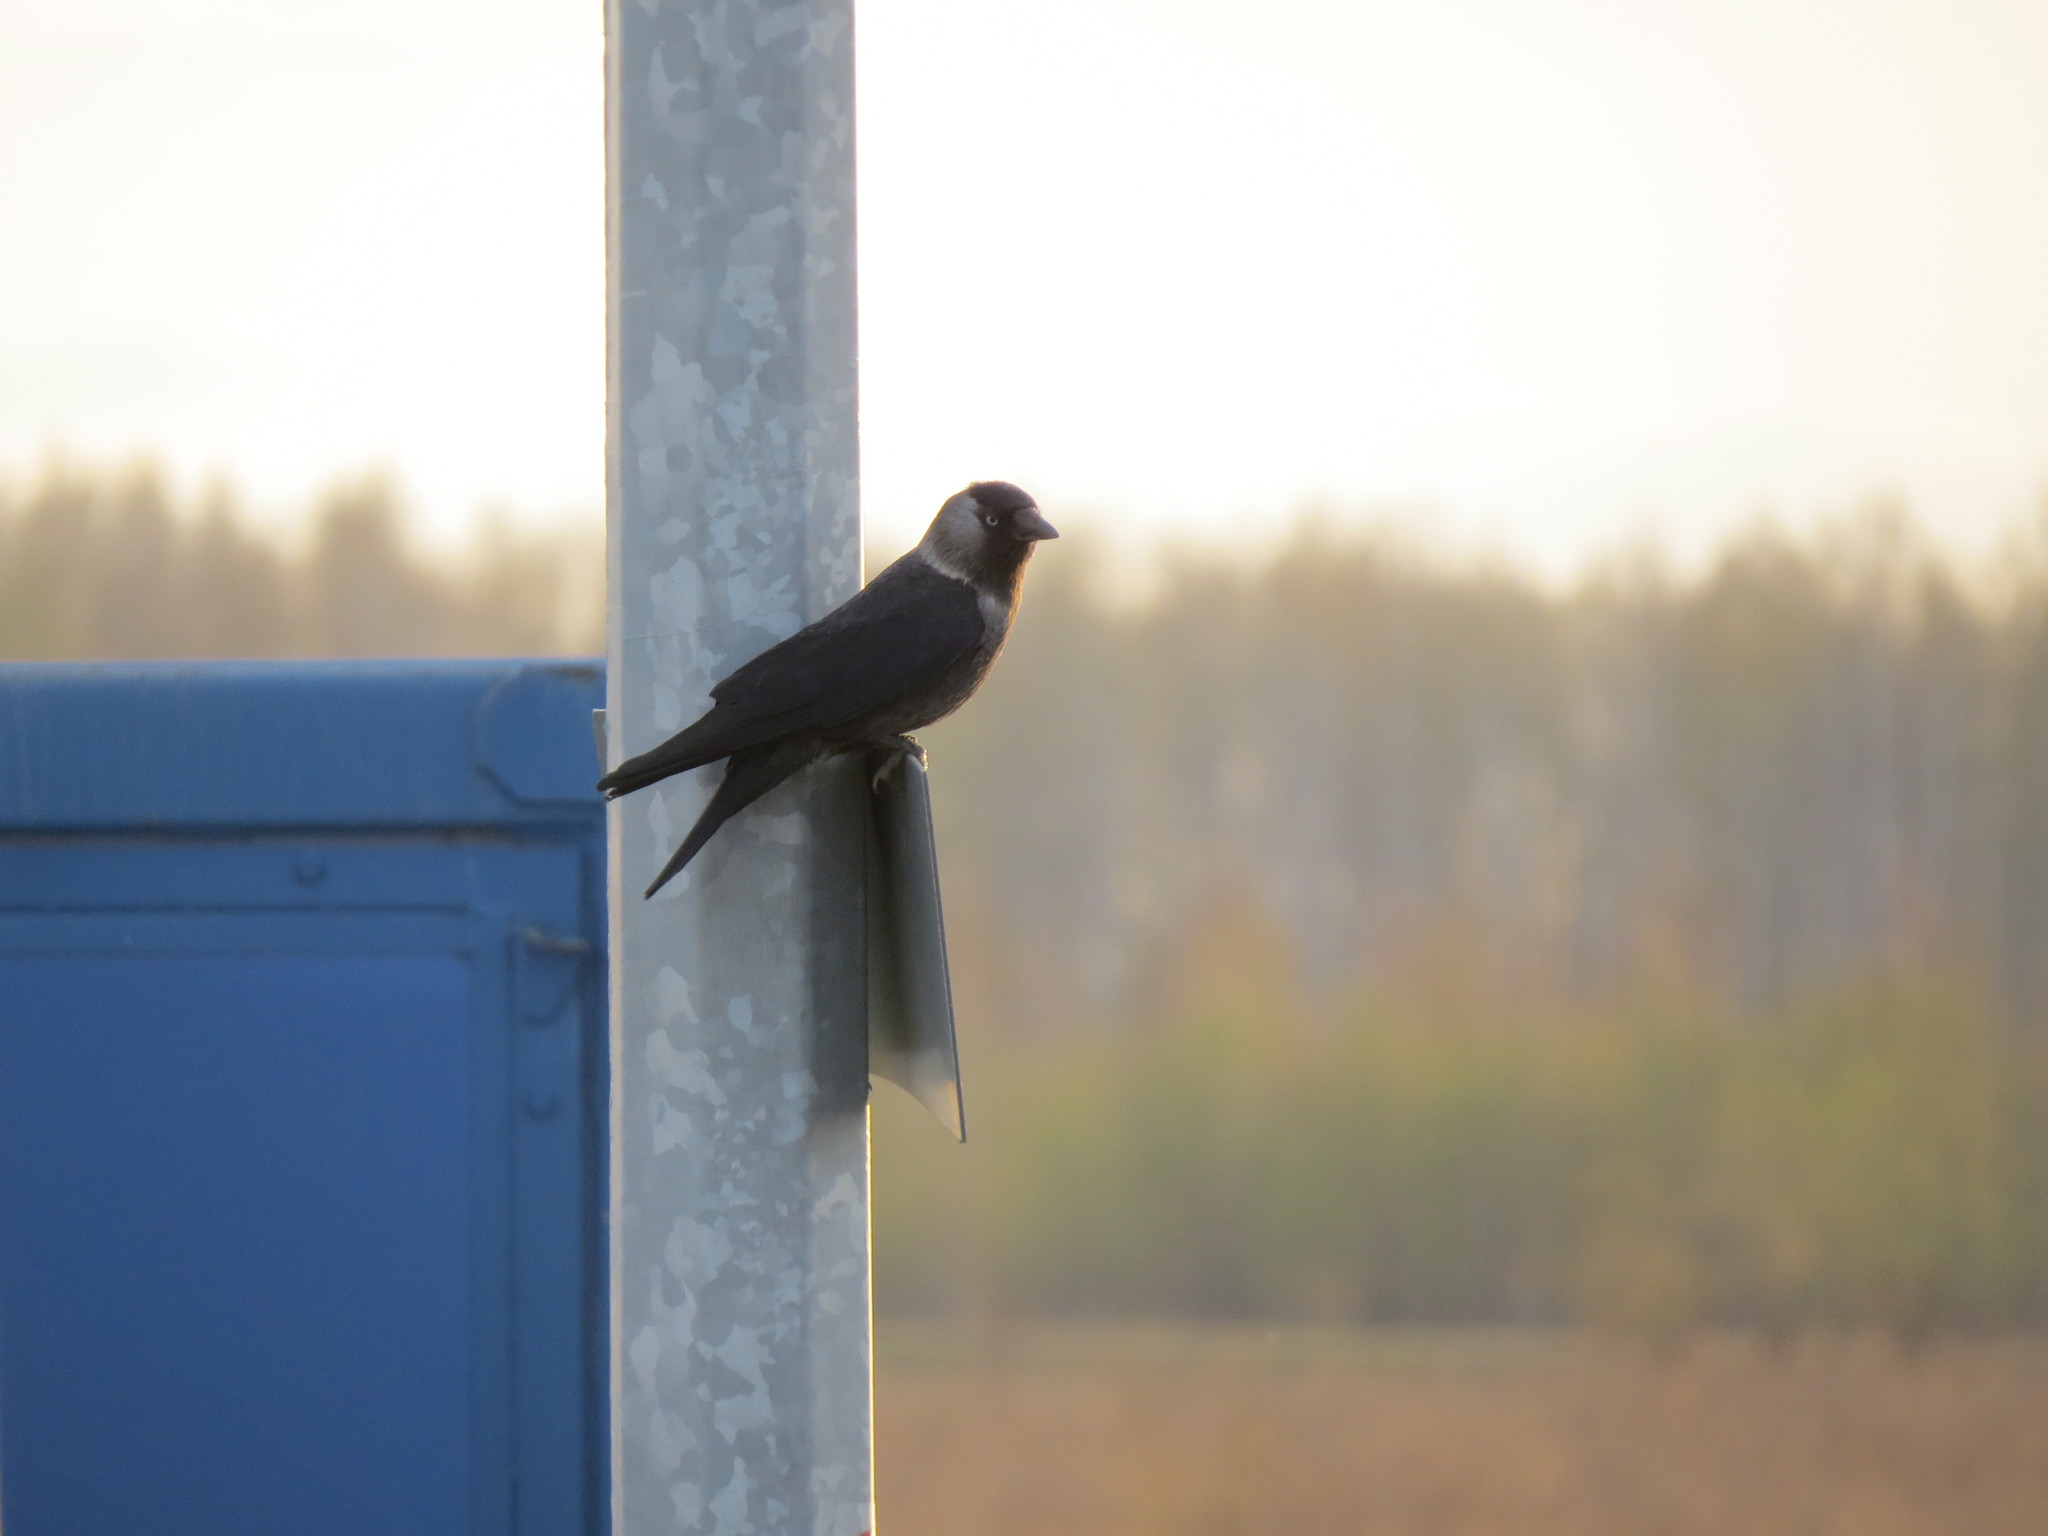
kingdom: Animalia
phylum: Chordata
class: Aves
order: Passeriformes
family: Corvidae
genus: Coloeus
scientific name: Coloeus monedula
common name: Western jackdaw
